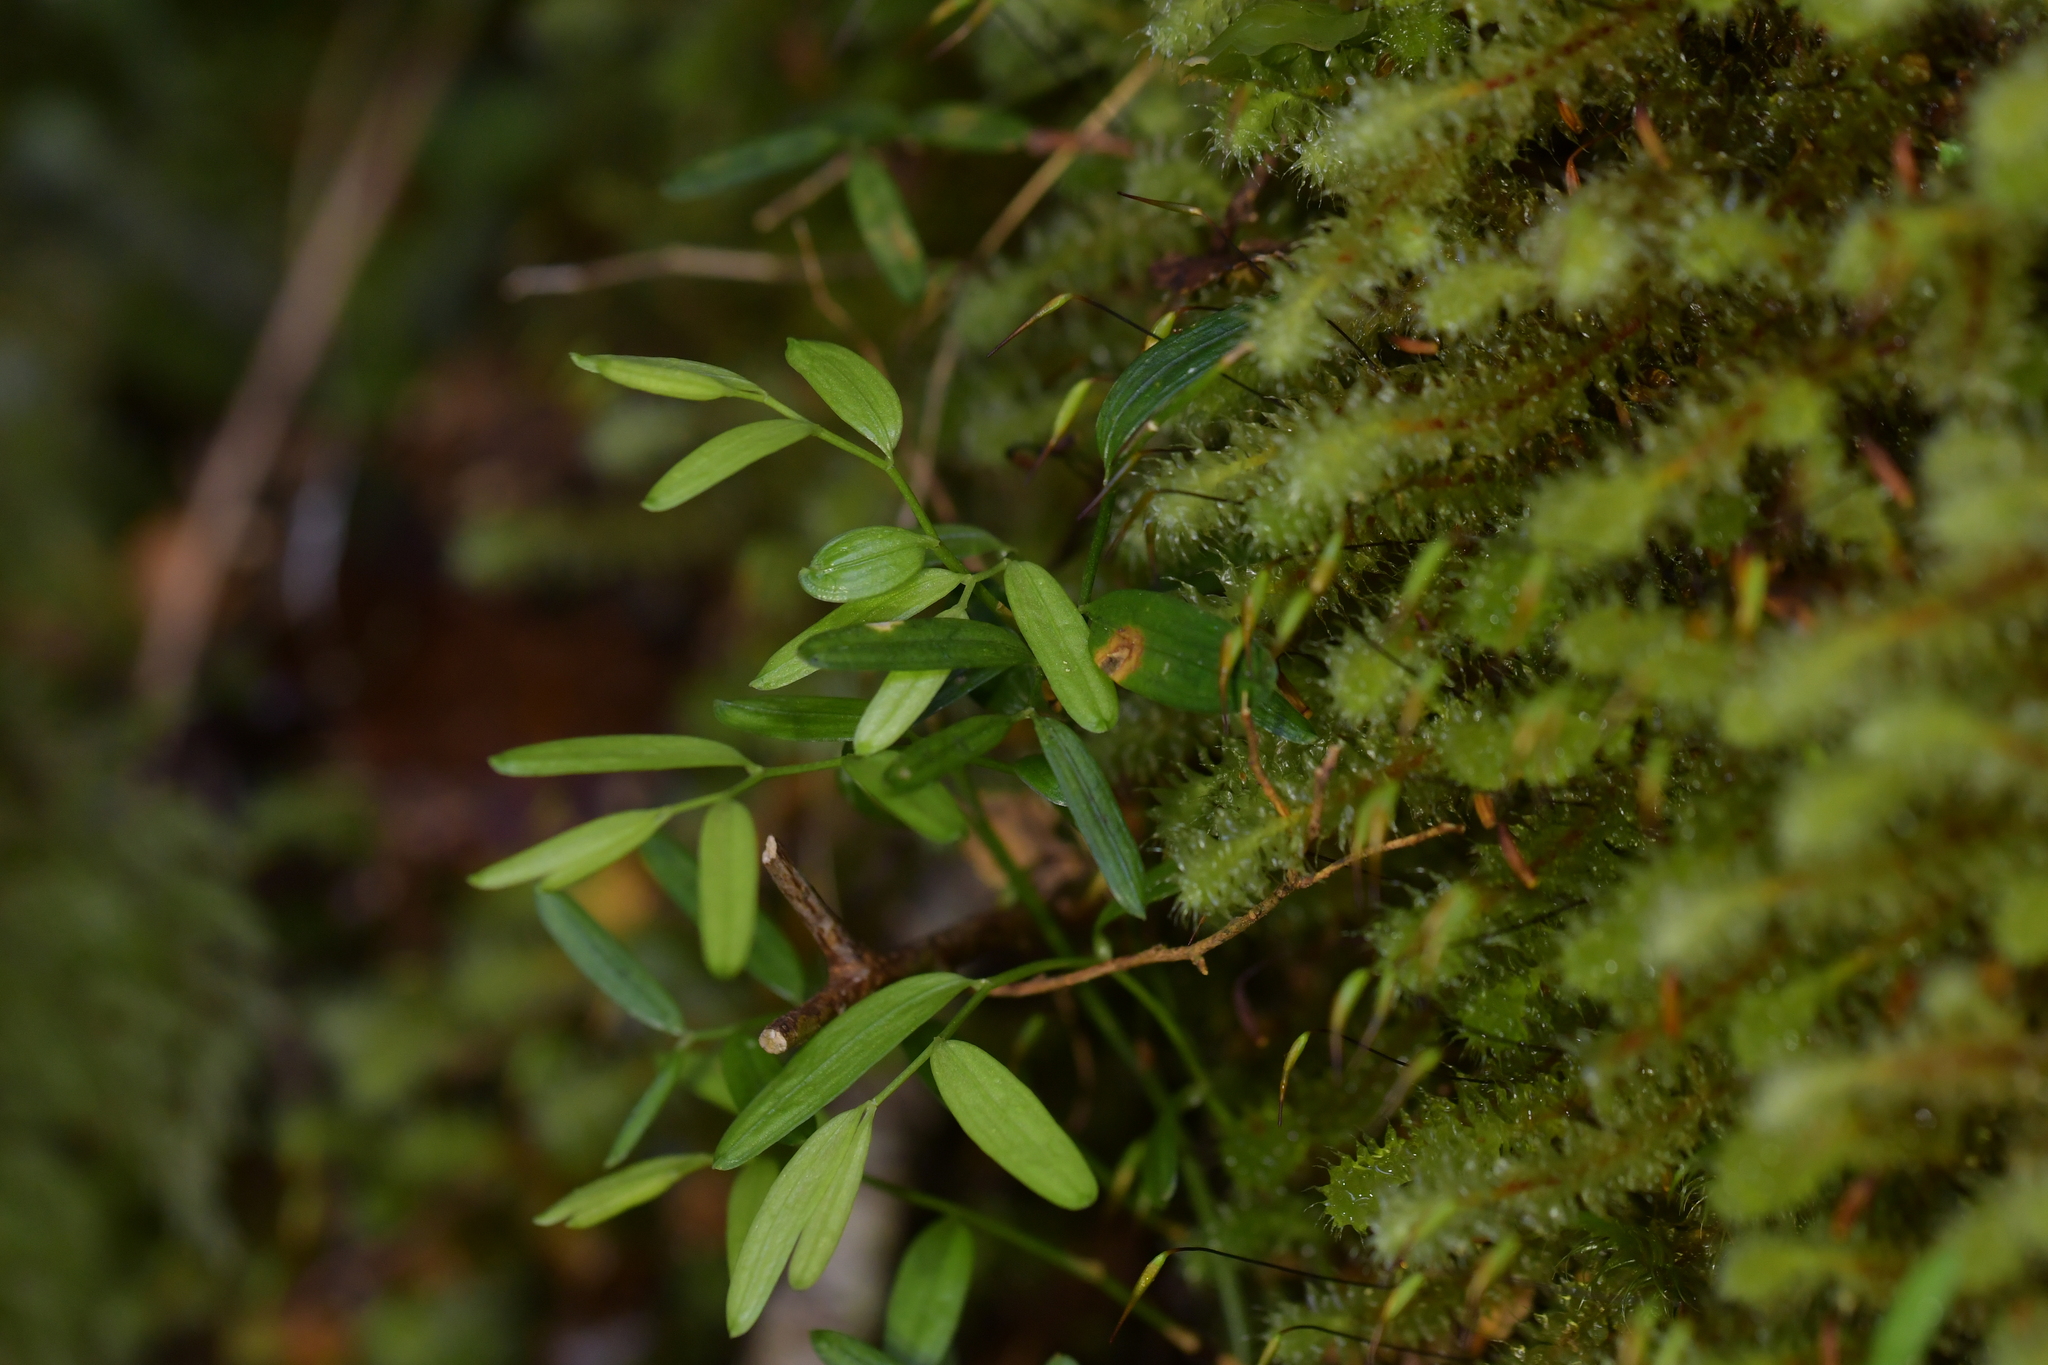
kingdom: Plantae
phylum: Tracheophyta
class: Liliopsida
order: Liliales
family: Alstroemeriaceae
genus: Luzuriaga
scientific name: Luzuriaga parviflora
